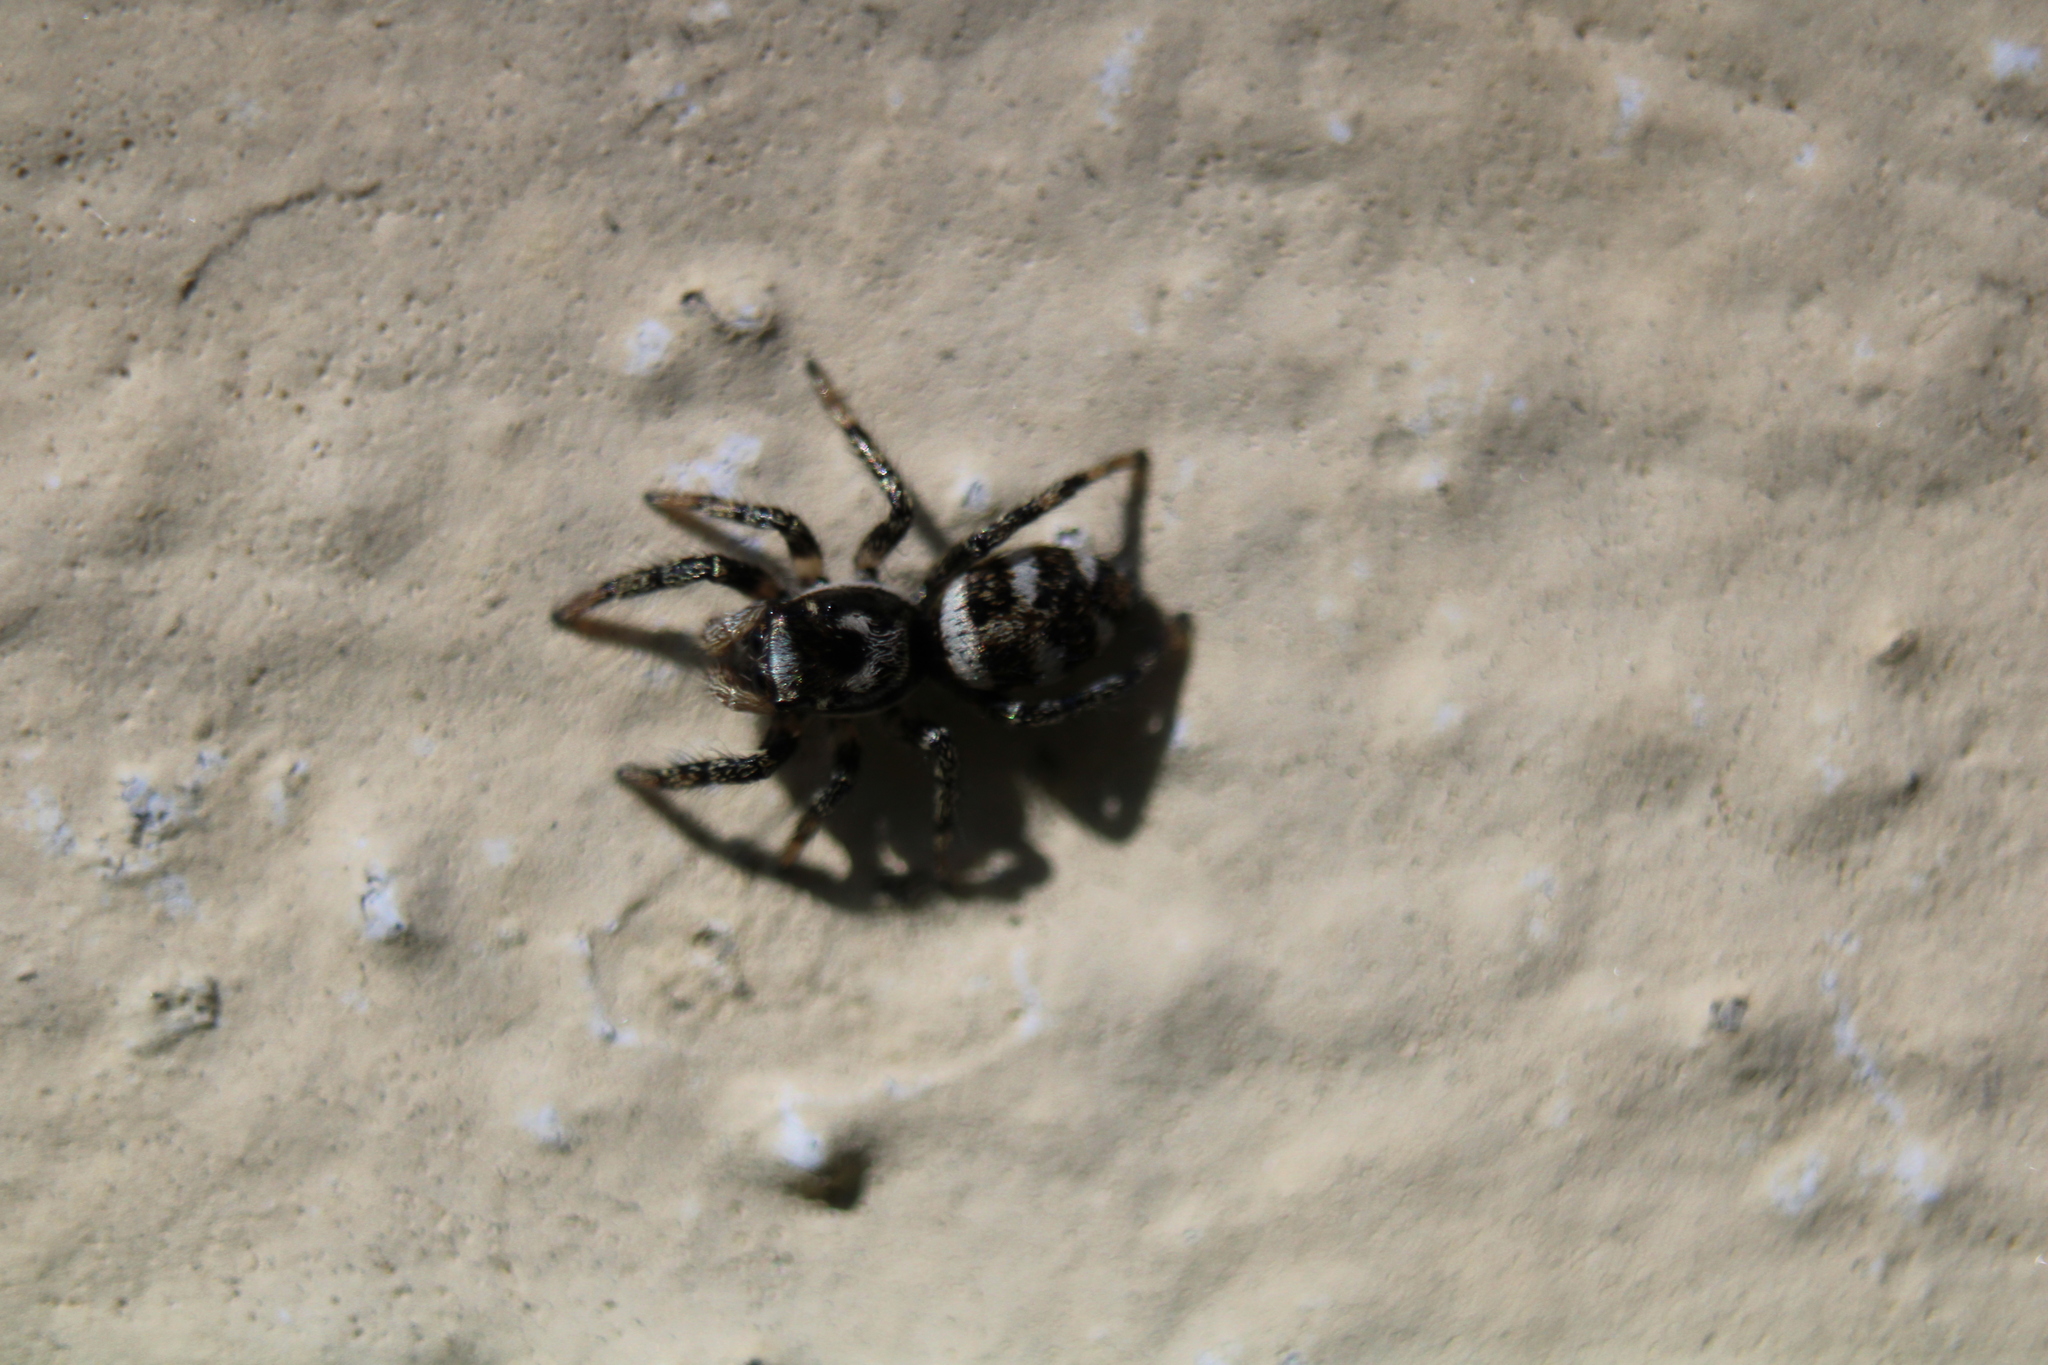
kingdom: Animalia
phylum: Arthropoda
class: Arachnida
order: Araneae
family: Salticidae
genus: Salticus
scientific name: Salticus scenicus
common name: Zebra jumper
